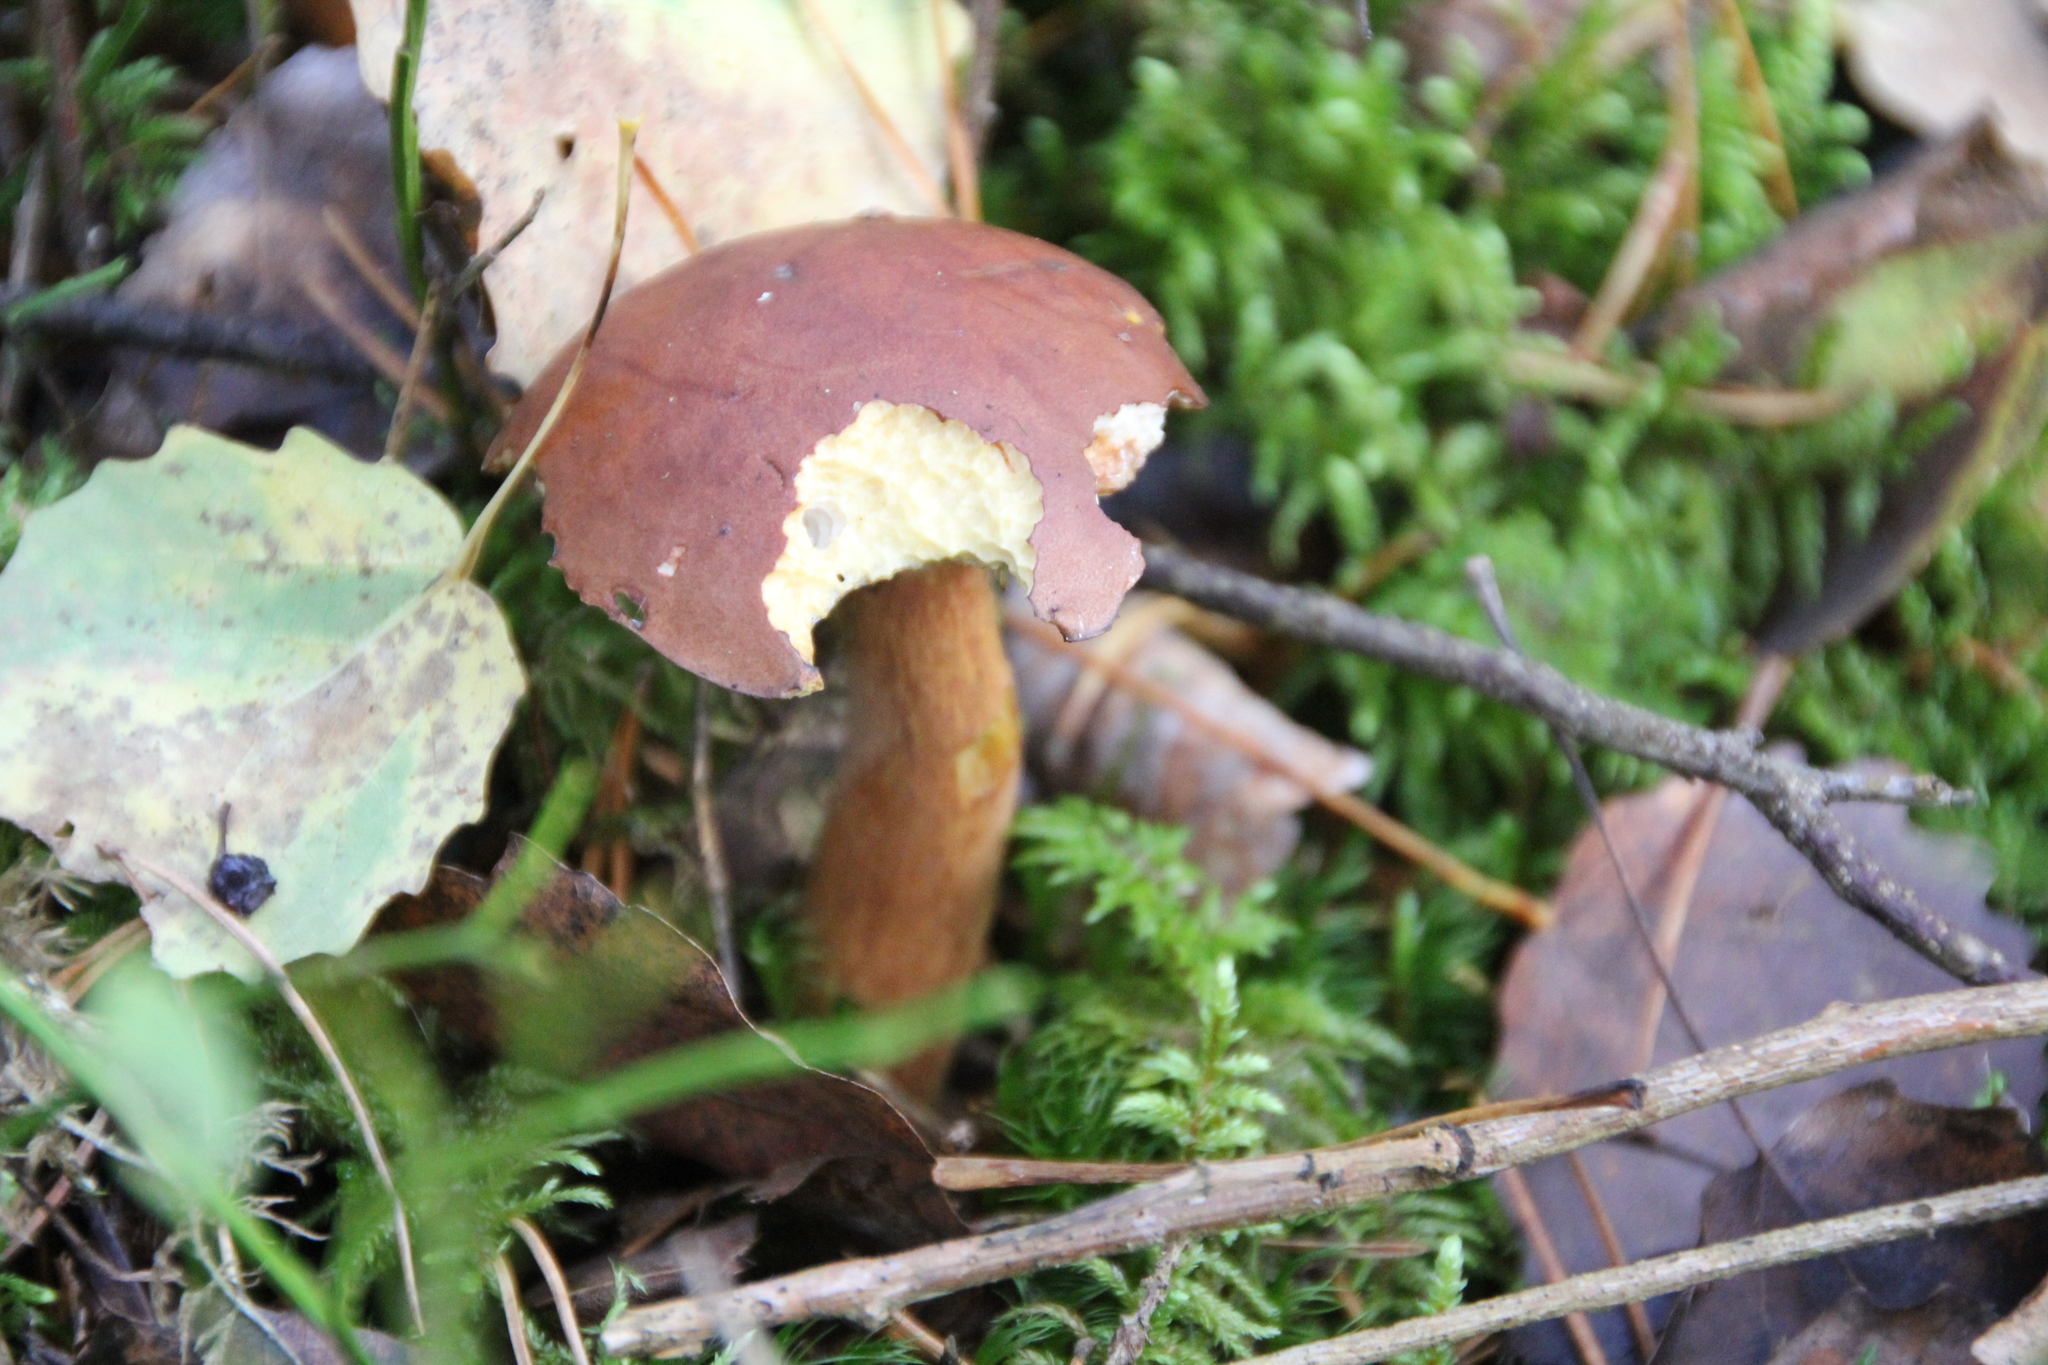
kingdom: Fungi
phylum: Basidiomycota
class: Agaricomycetes
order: Boletales
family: Boletaceae
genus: Imleria
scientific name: Imleria badia
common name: Bay bolete
